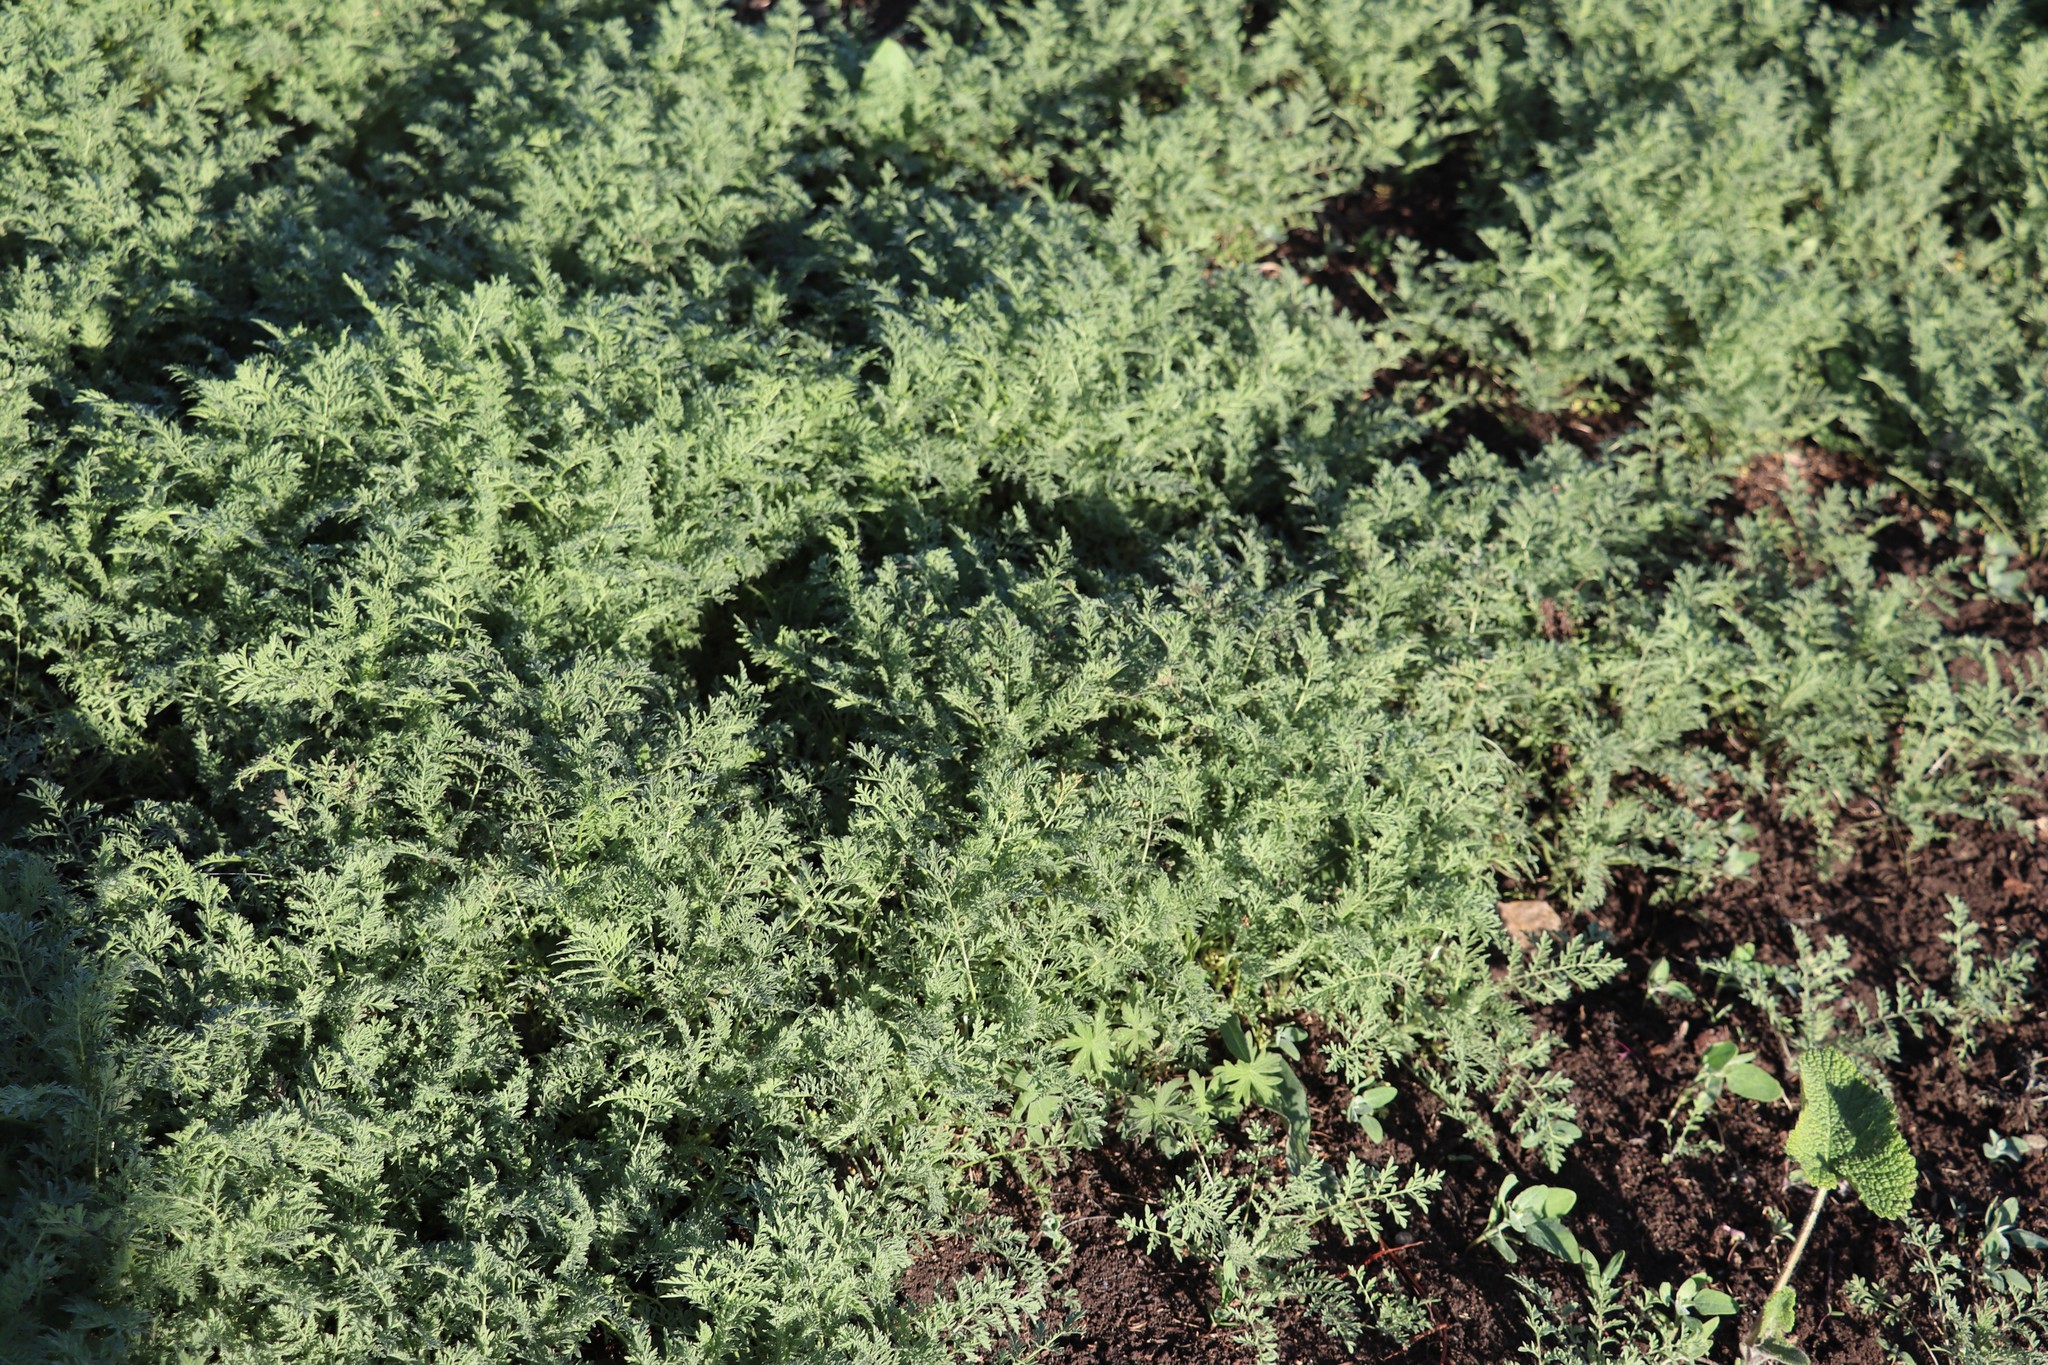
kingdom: Plantae
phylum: Tracheophyta
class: Magnoliopsida
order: Brassicales
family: Brassicaceae
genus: Descurainia
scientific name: Descurainia sophia
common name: Flixweed
